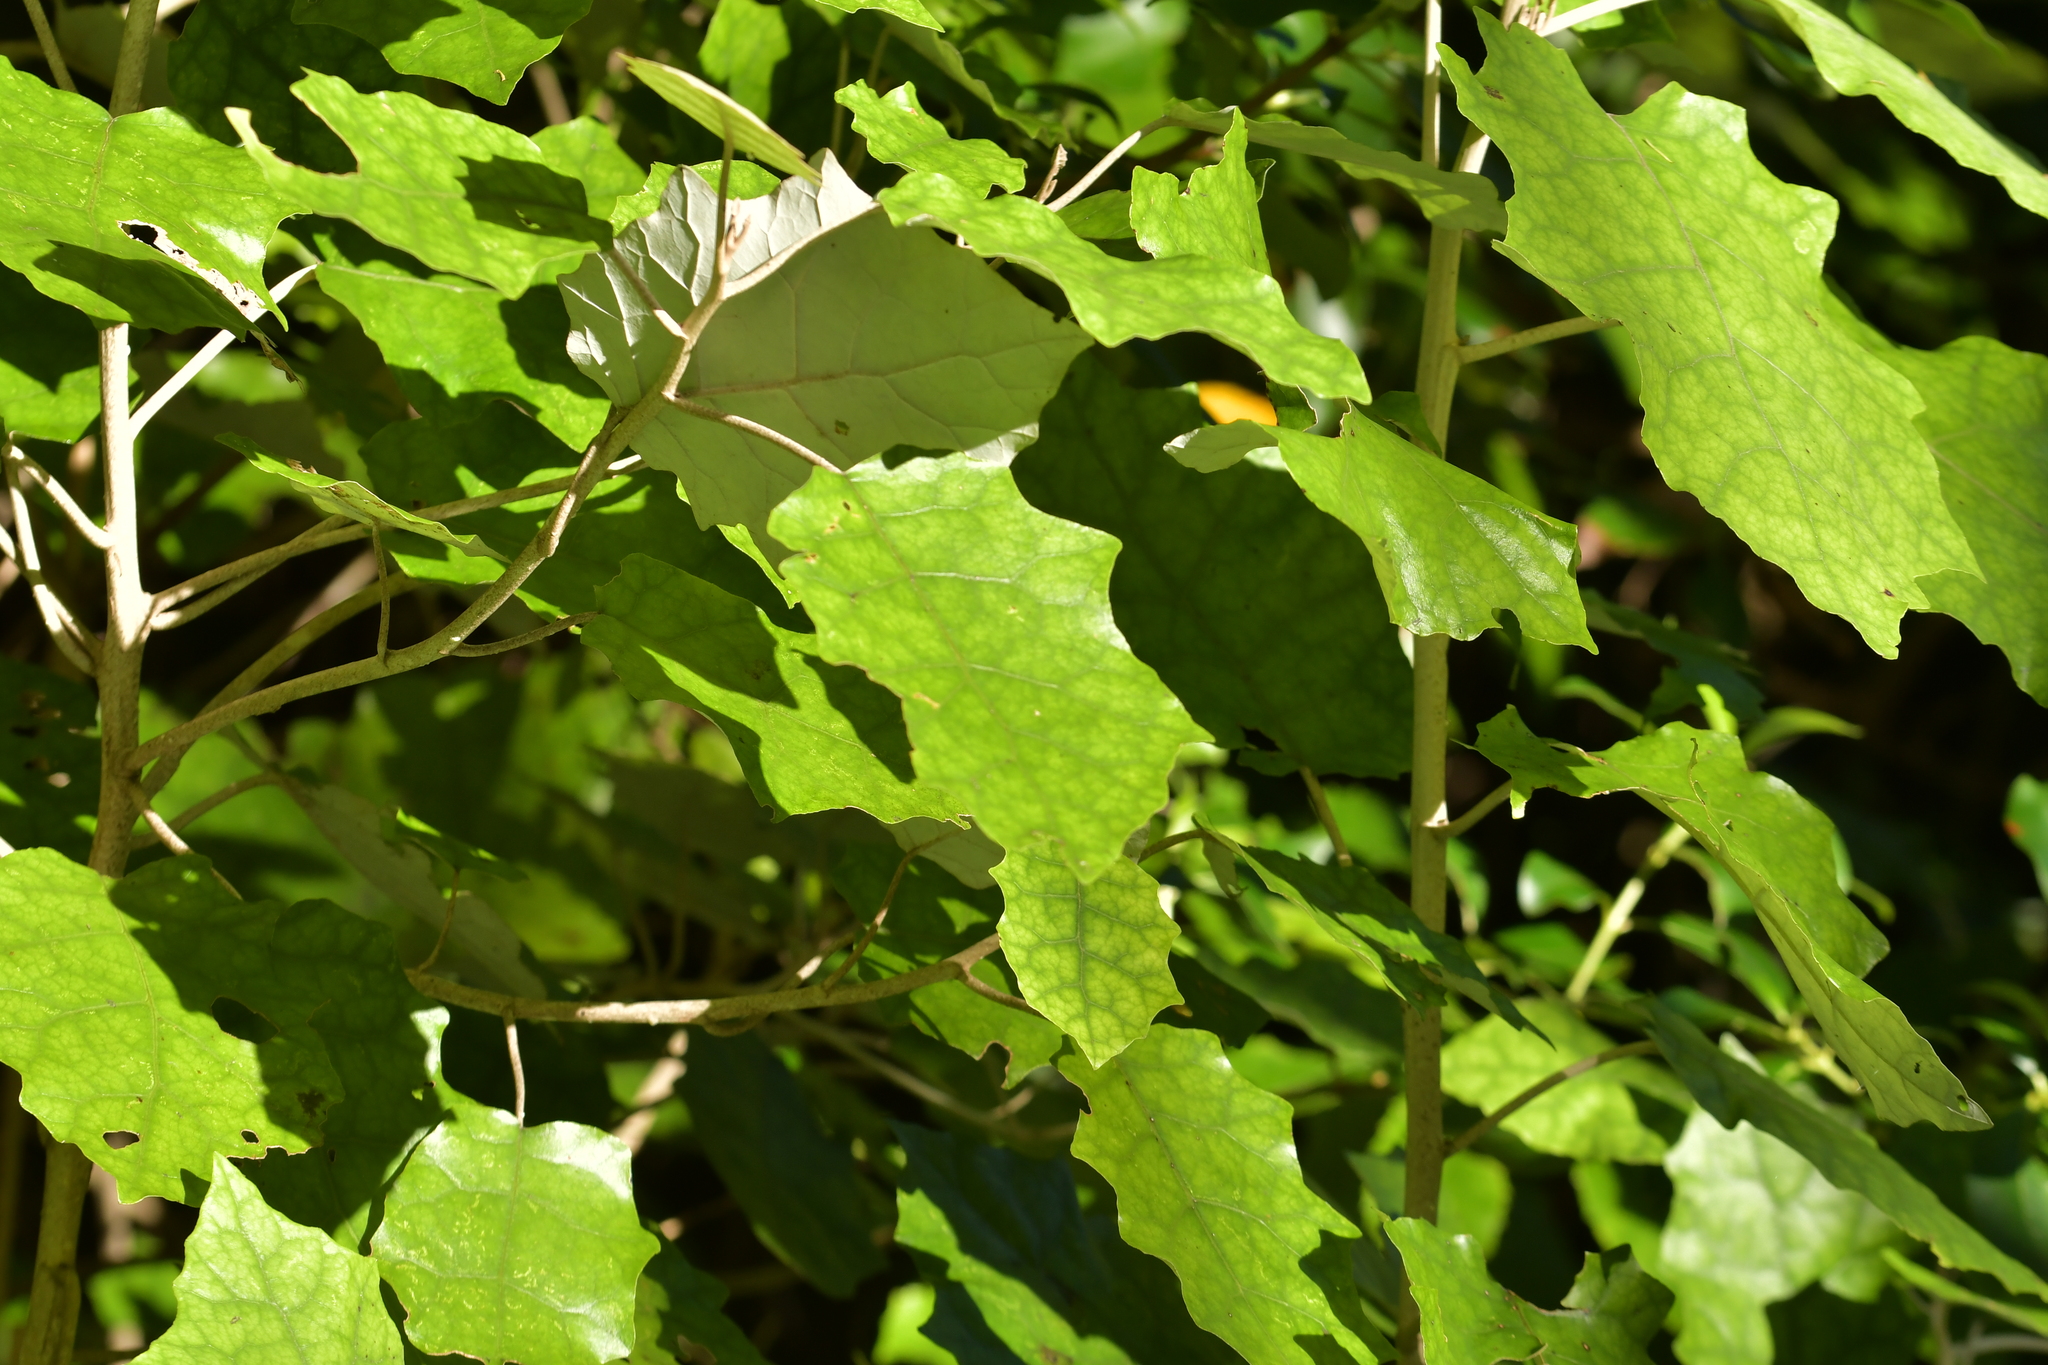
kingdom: Plantae
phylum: Tracheophyta
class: Magnoliopsida
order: Asterales
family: Asteraceae
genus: Brachyglottis
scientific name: Brachyglottis repanda
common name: Hedge ragwort
